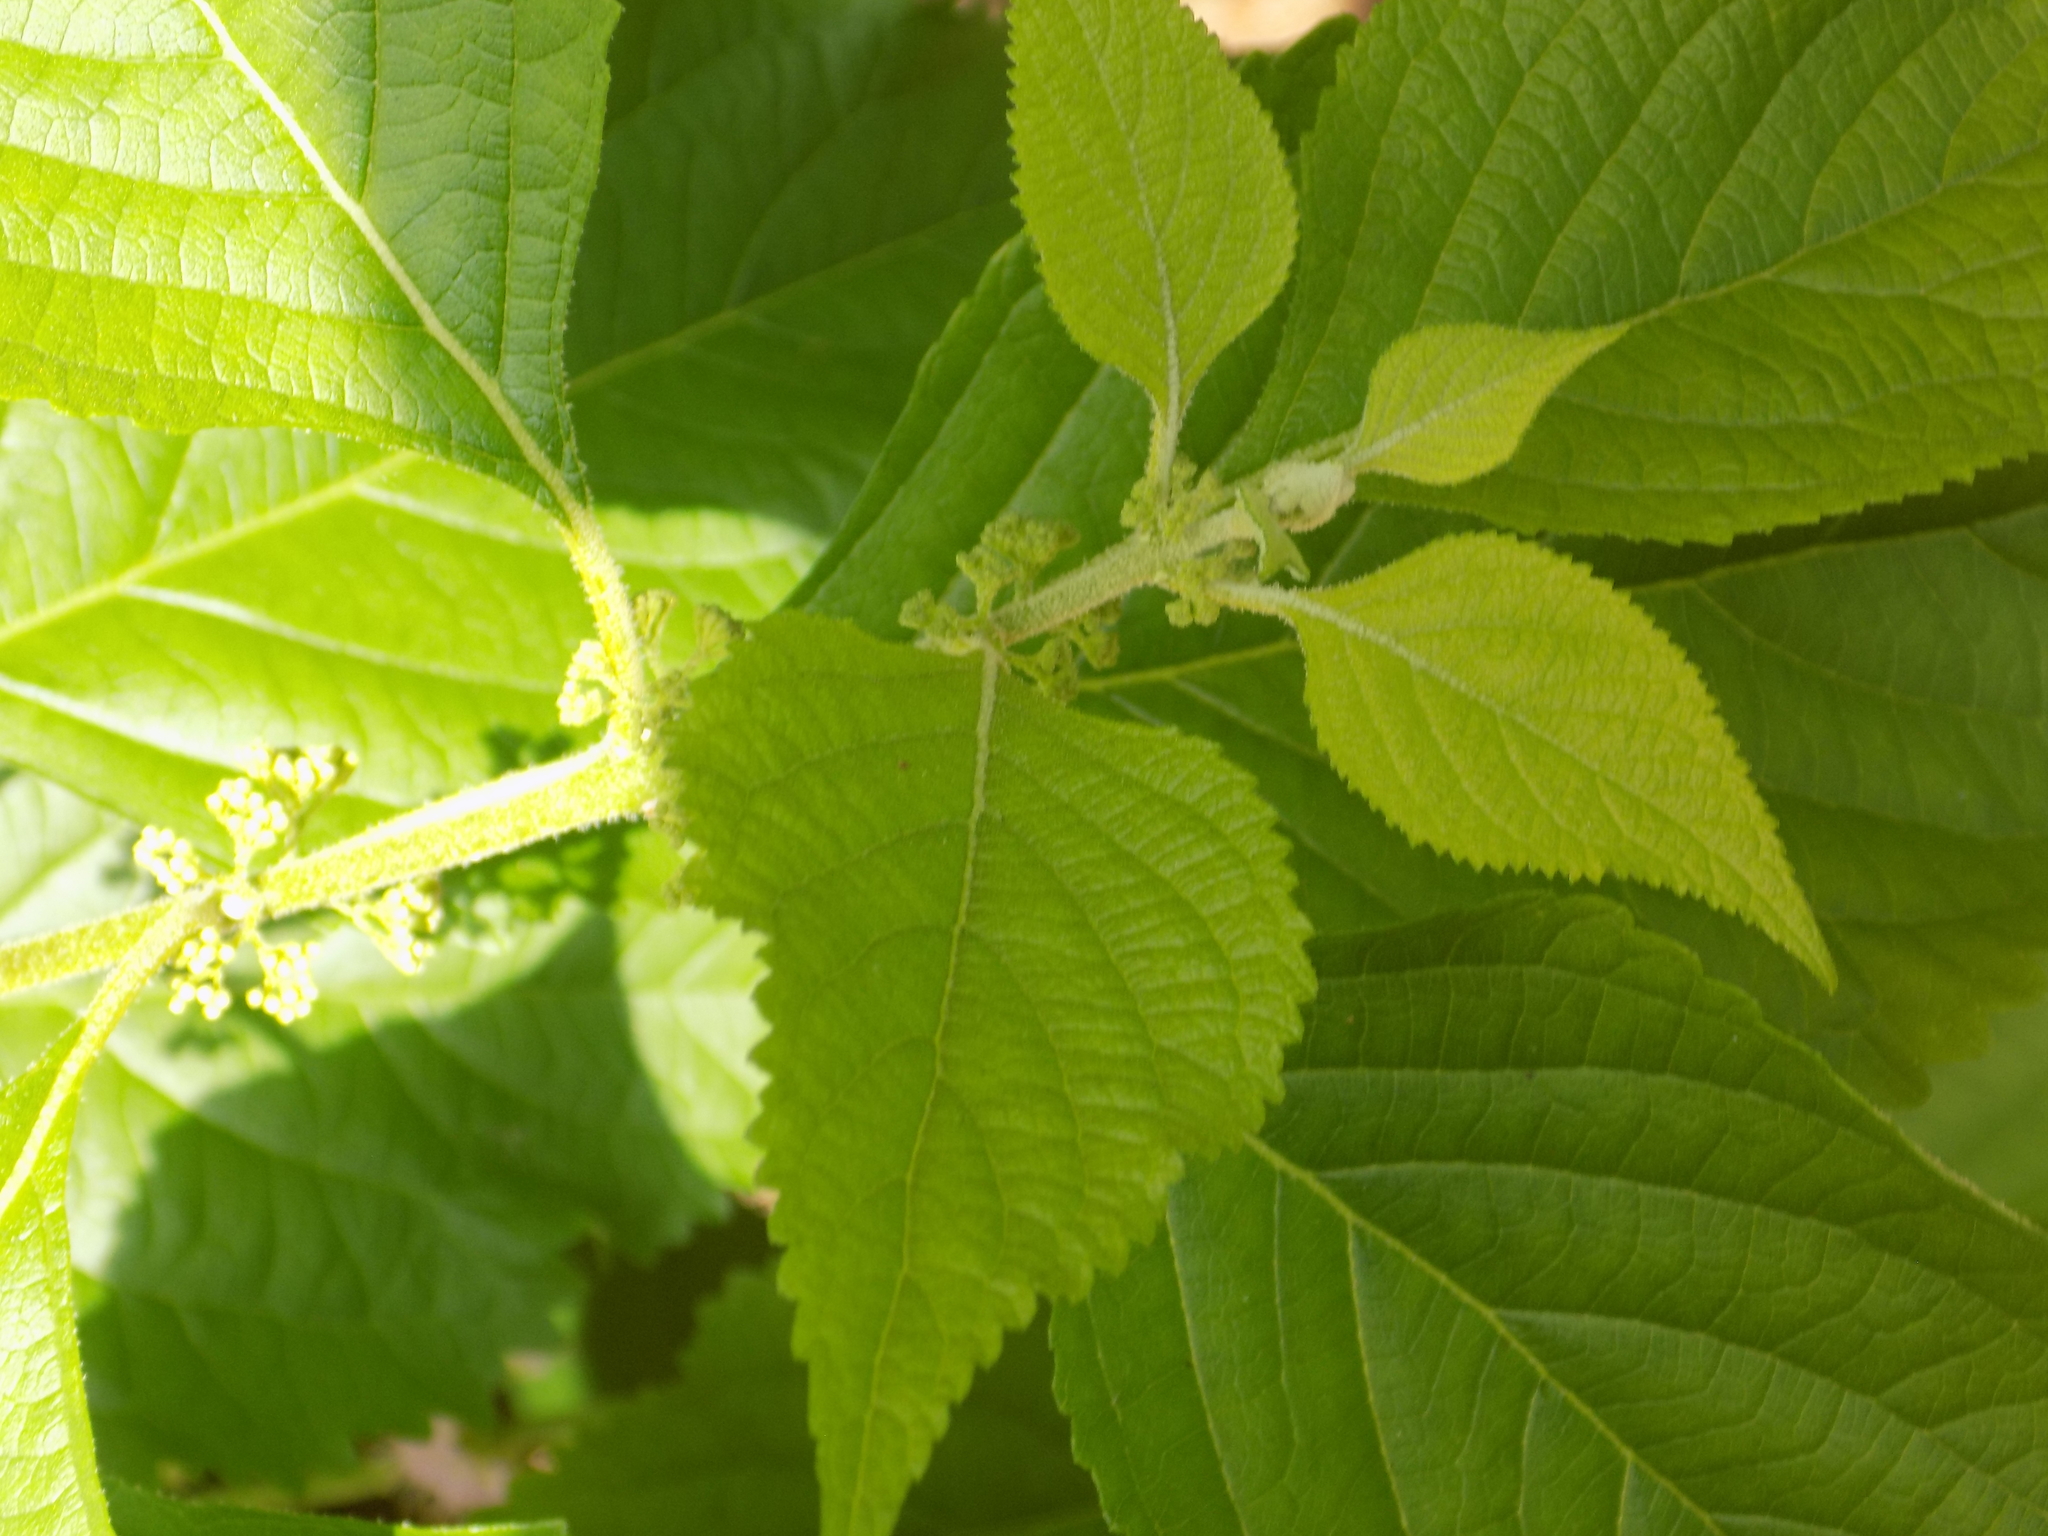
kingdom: Plantae
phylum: Tracheophyta
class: Magnoliopsida
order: Lamiales
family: Lamiaceae
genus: Callicarpa
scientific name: Callicarpa americana
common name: American beautyberry
